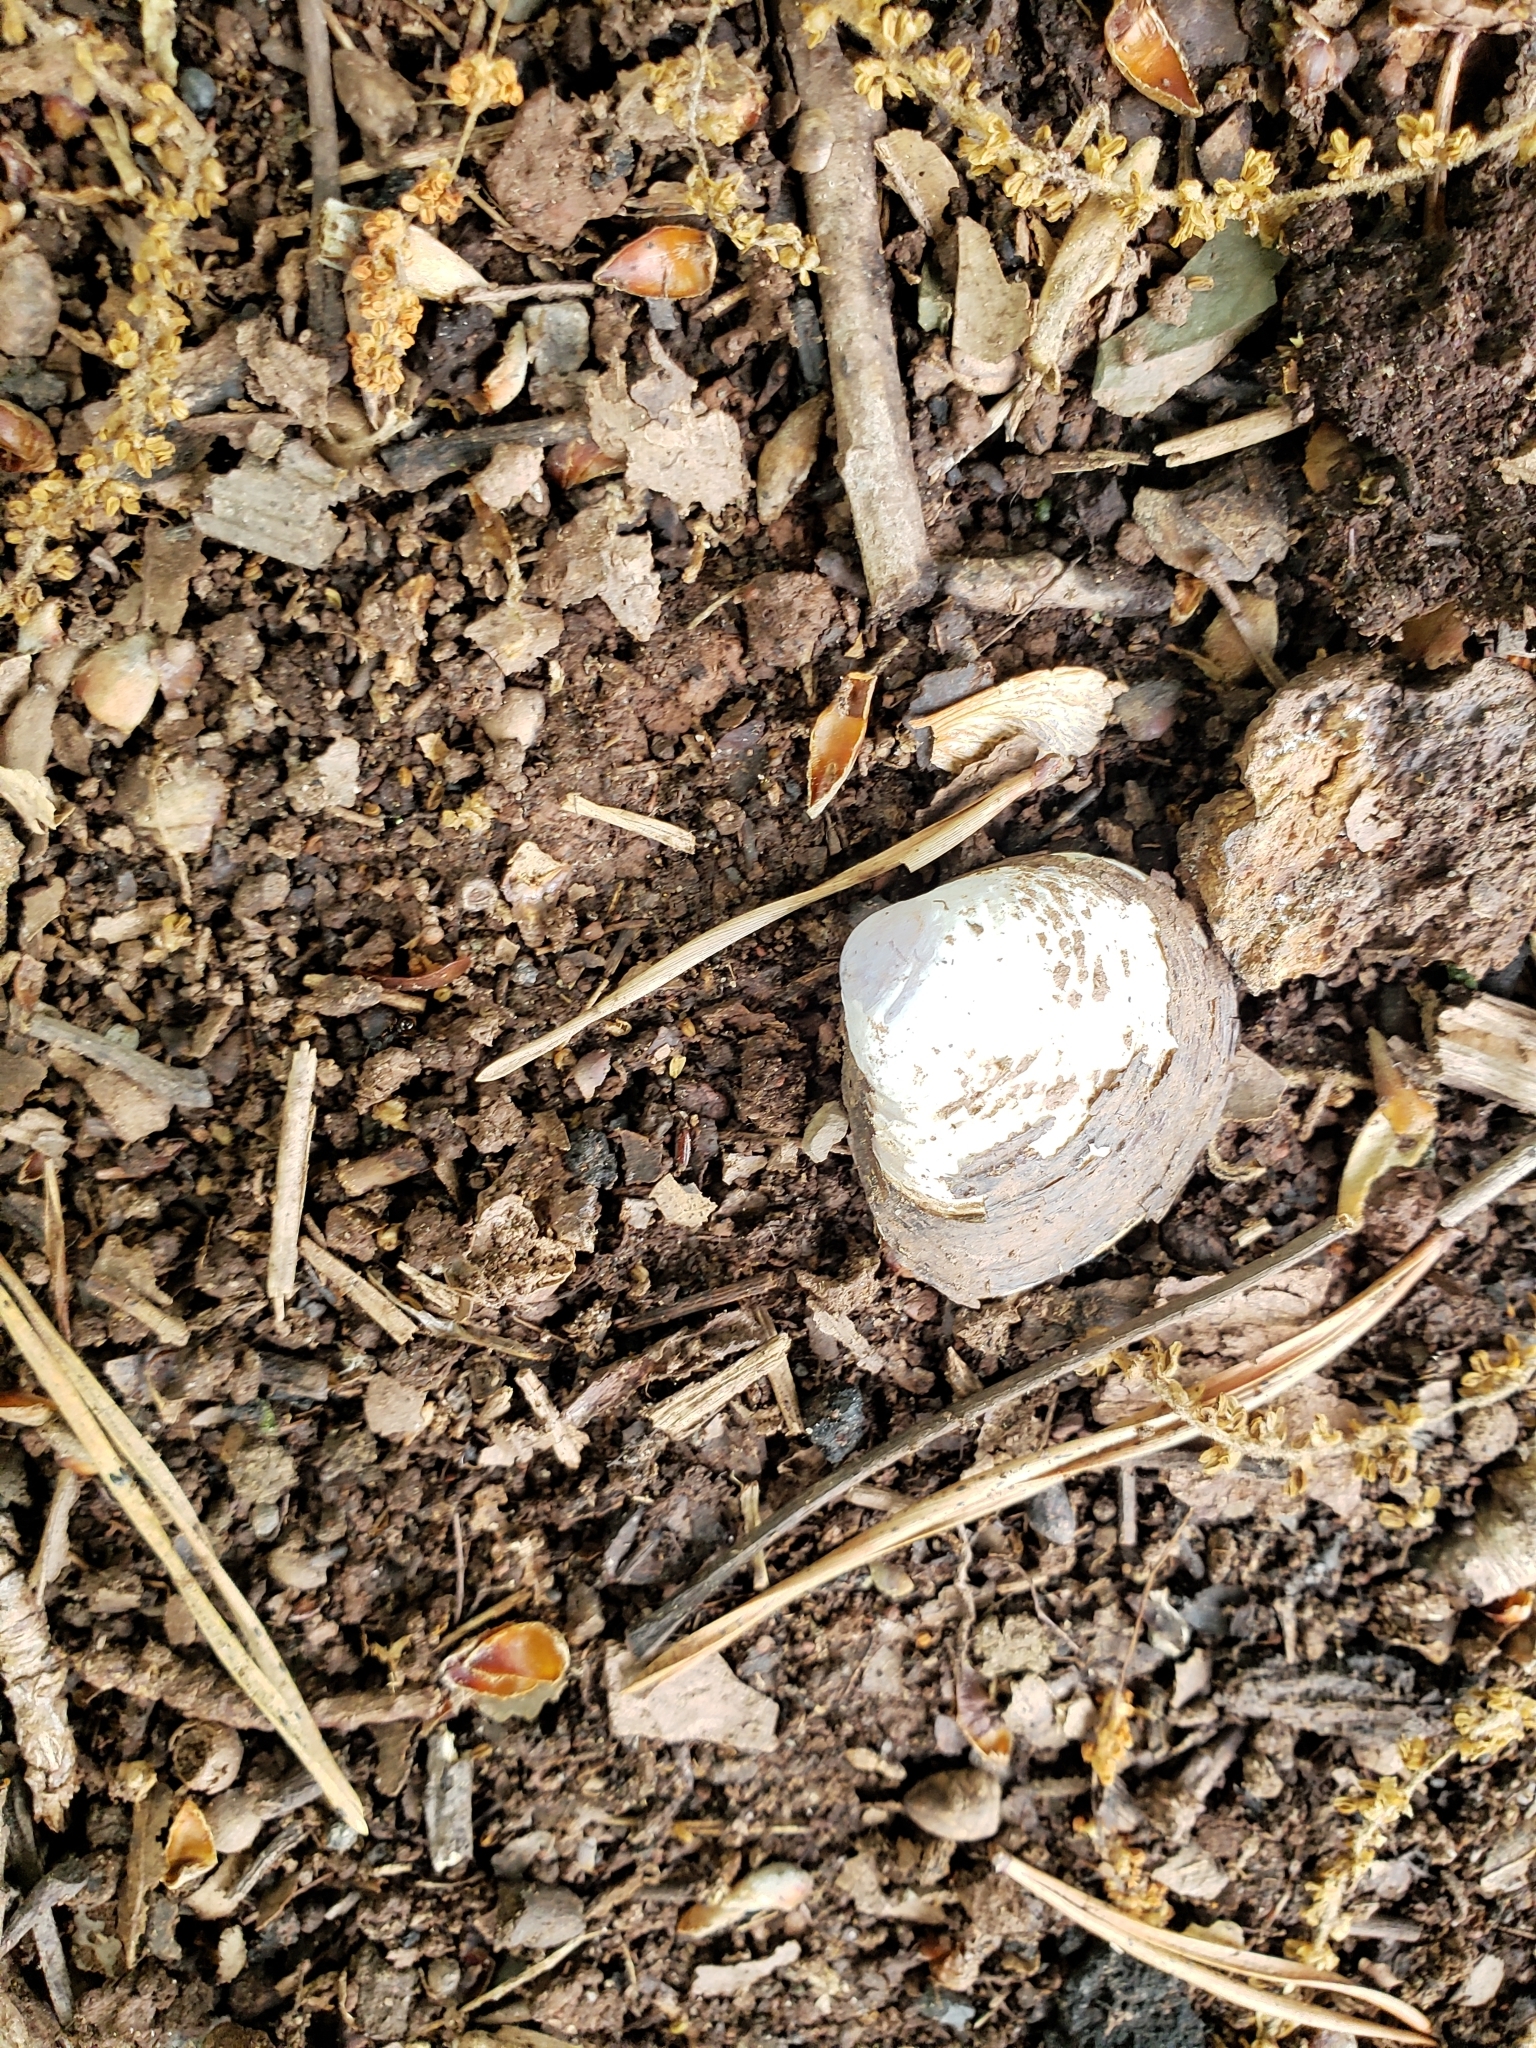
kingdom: Animalia
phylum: Mollusca
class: Bivalvia
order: Venerida
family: Cyrenidae
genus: Corbicula
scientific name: Corbicula fluminea
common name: Asian clam
